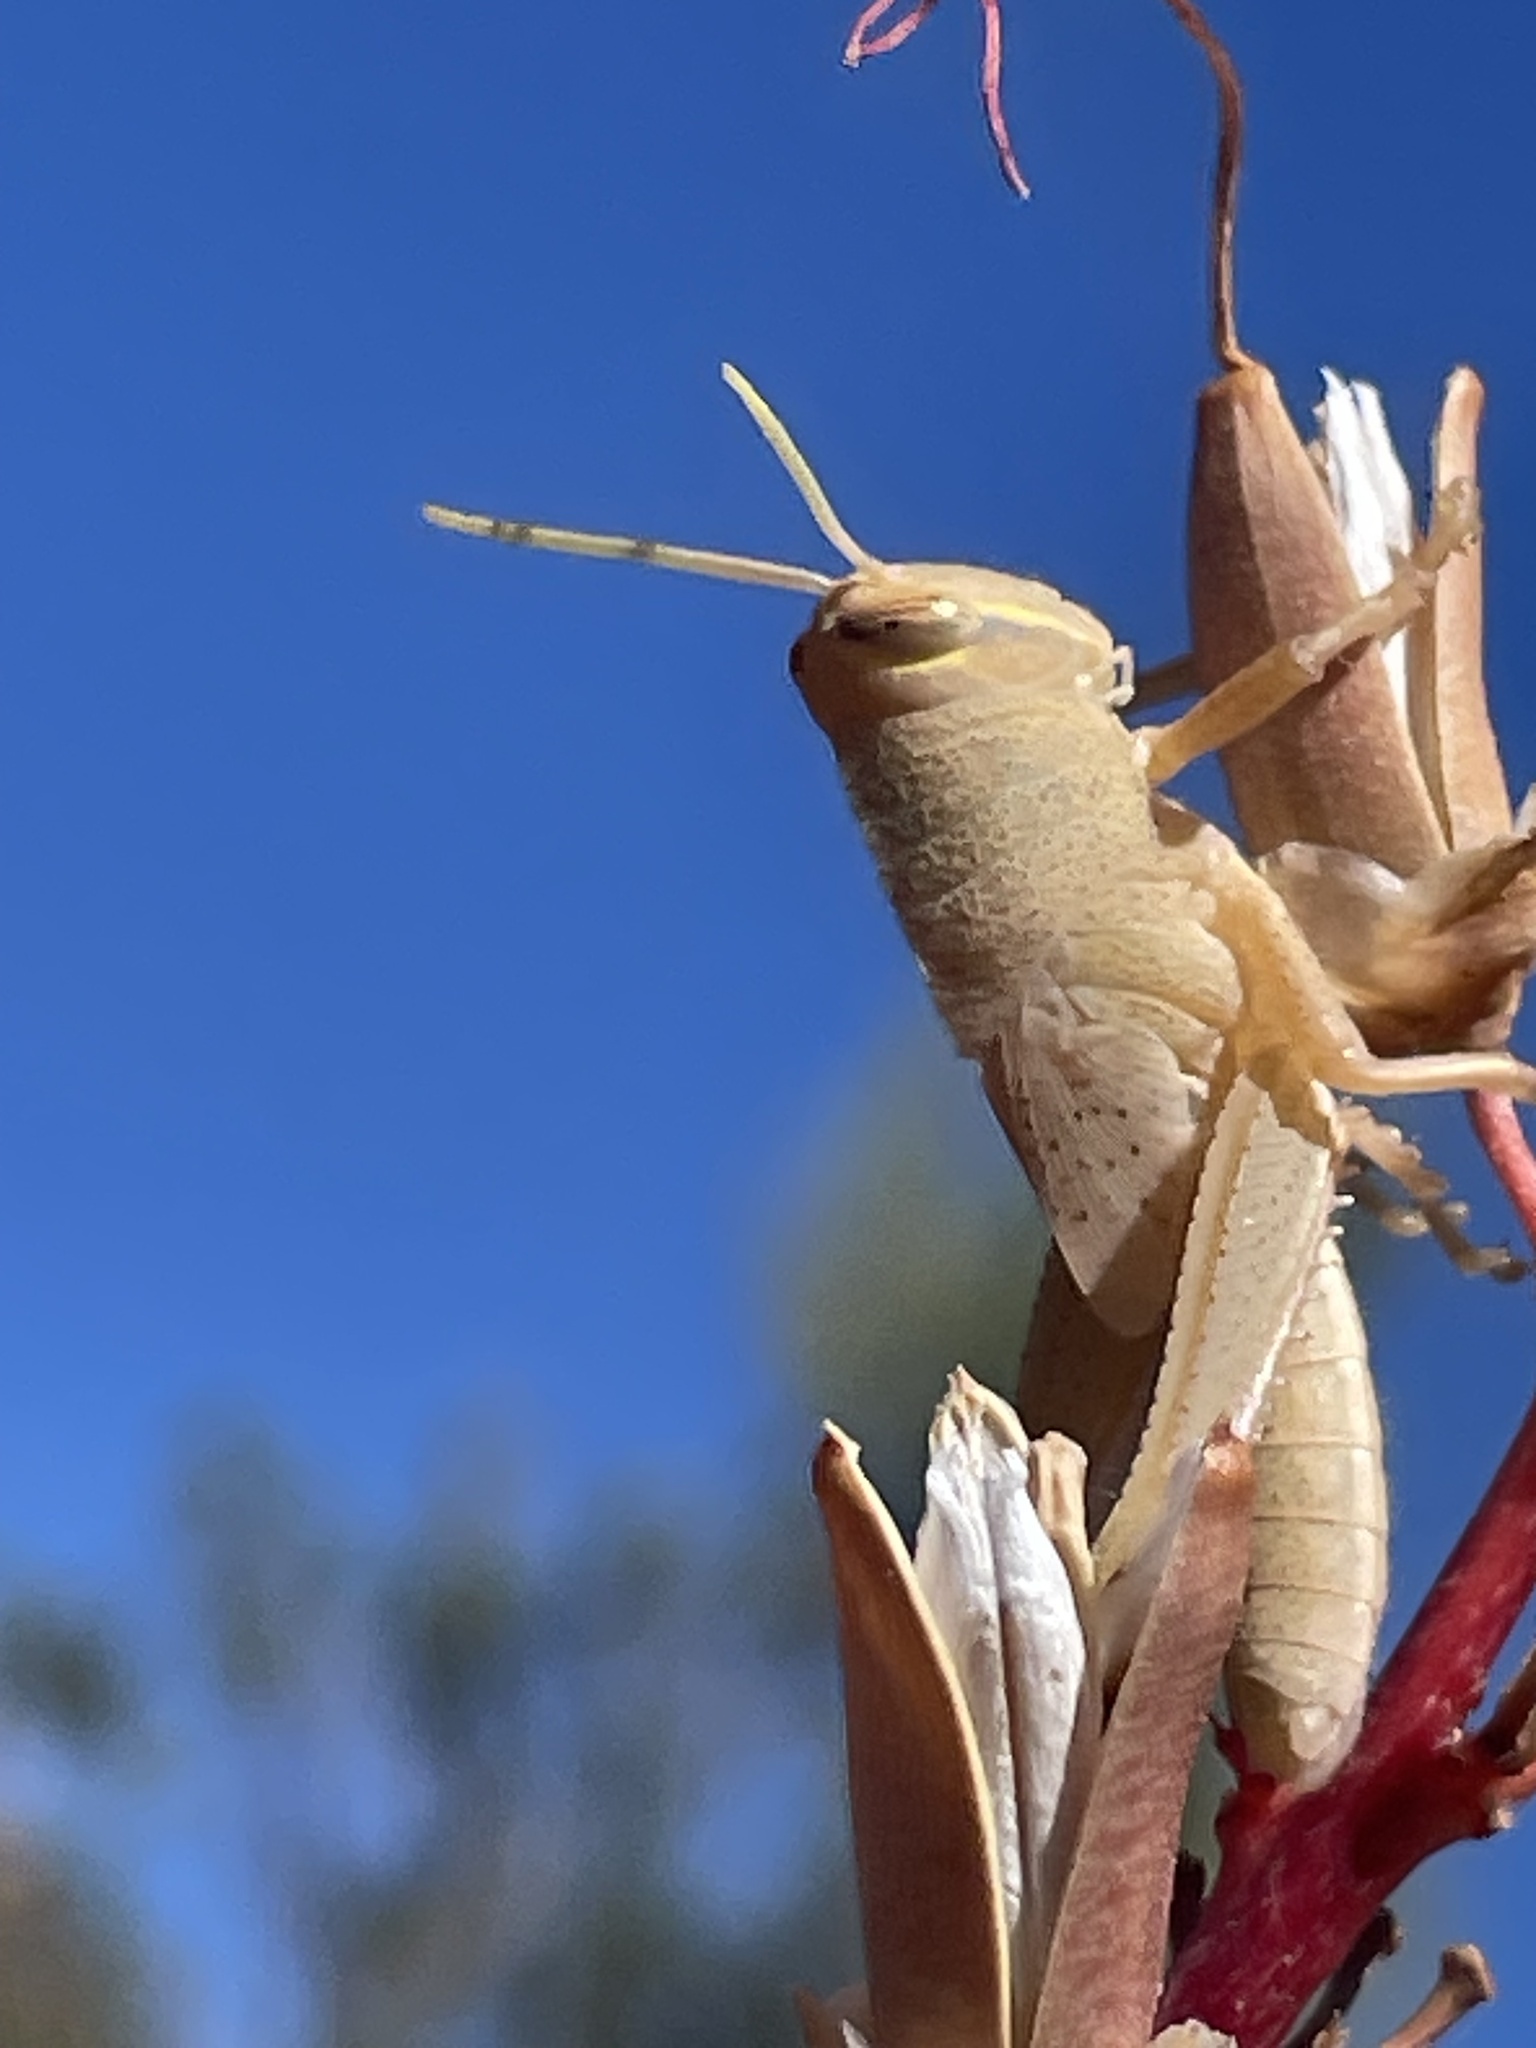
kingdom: Animalia
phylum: Arthropoda
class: Insecta
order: Orthoptera
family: Acrididae
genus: Schistocerca
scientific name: Schistocerca shoshone
